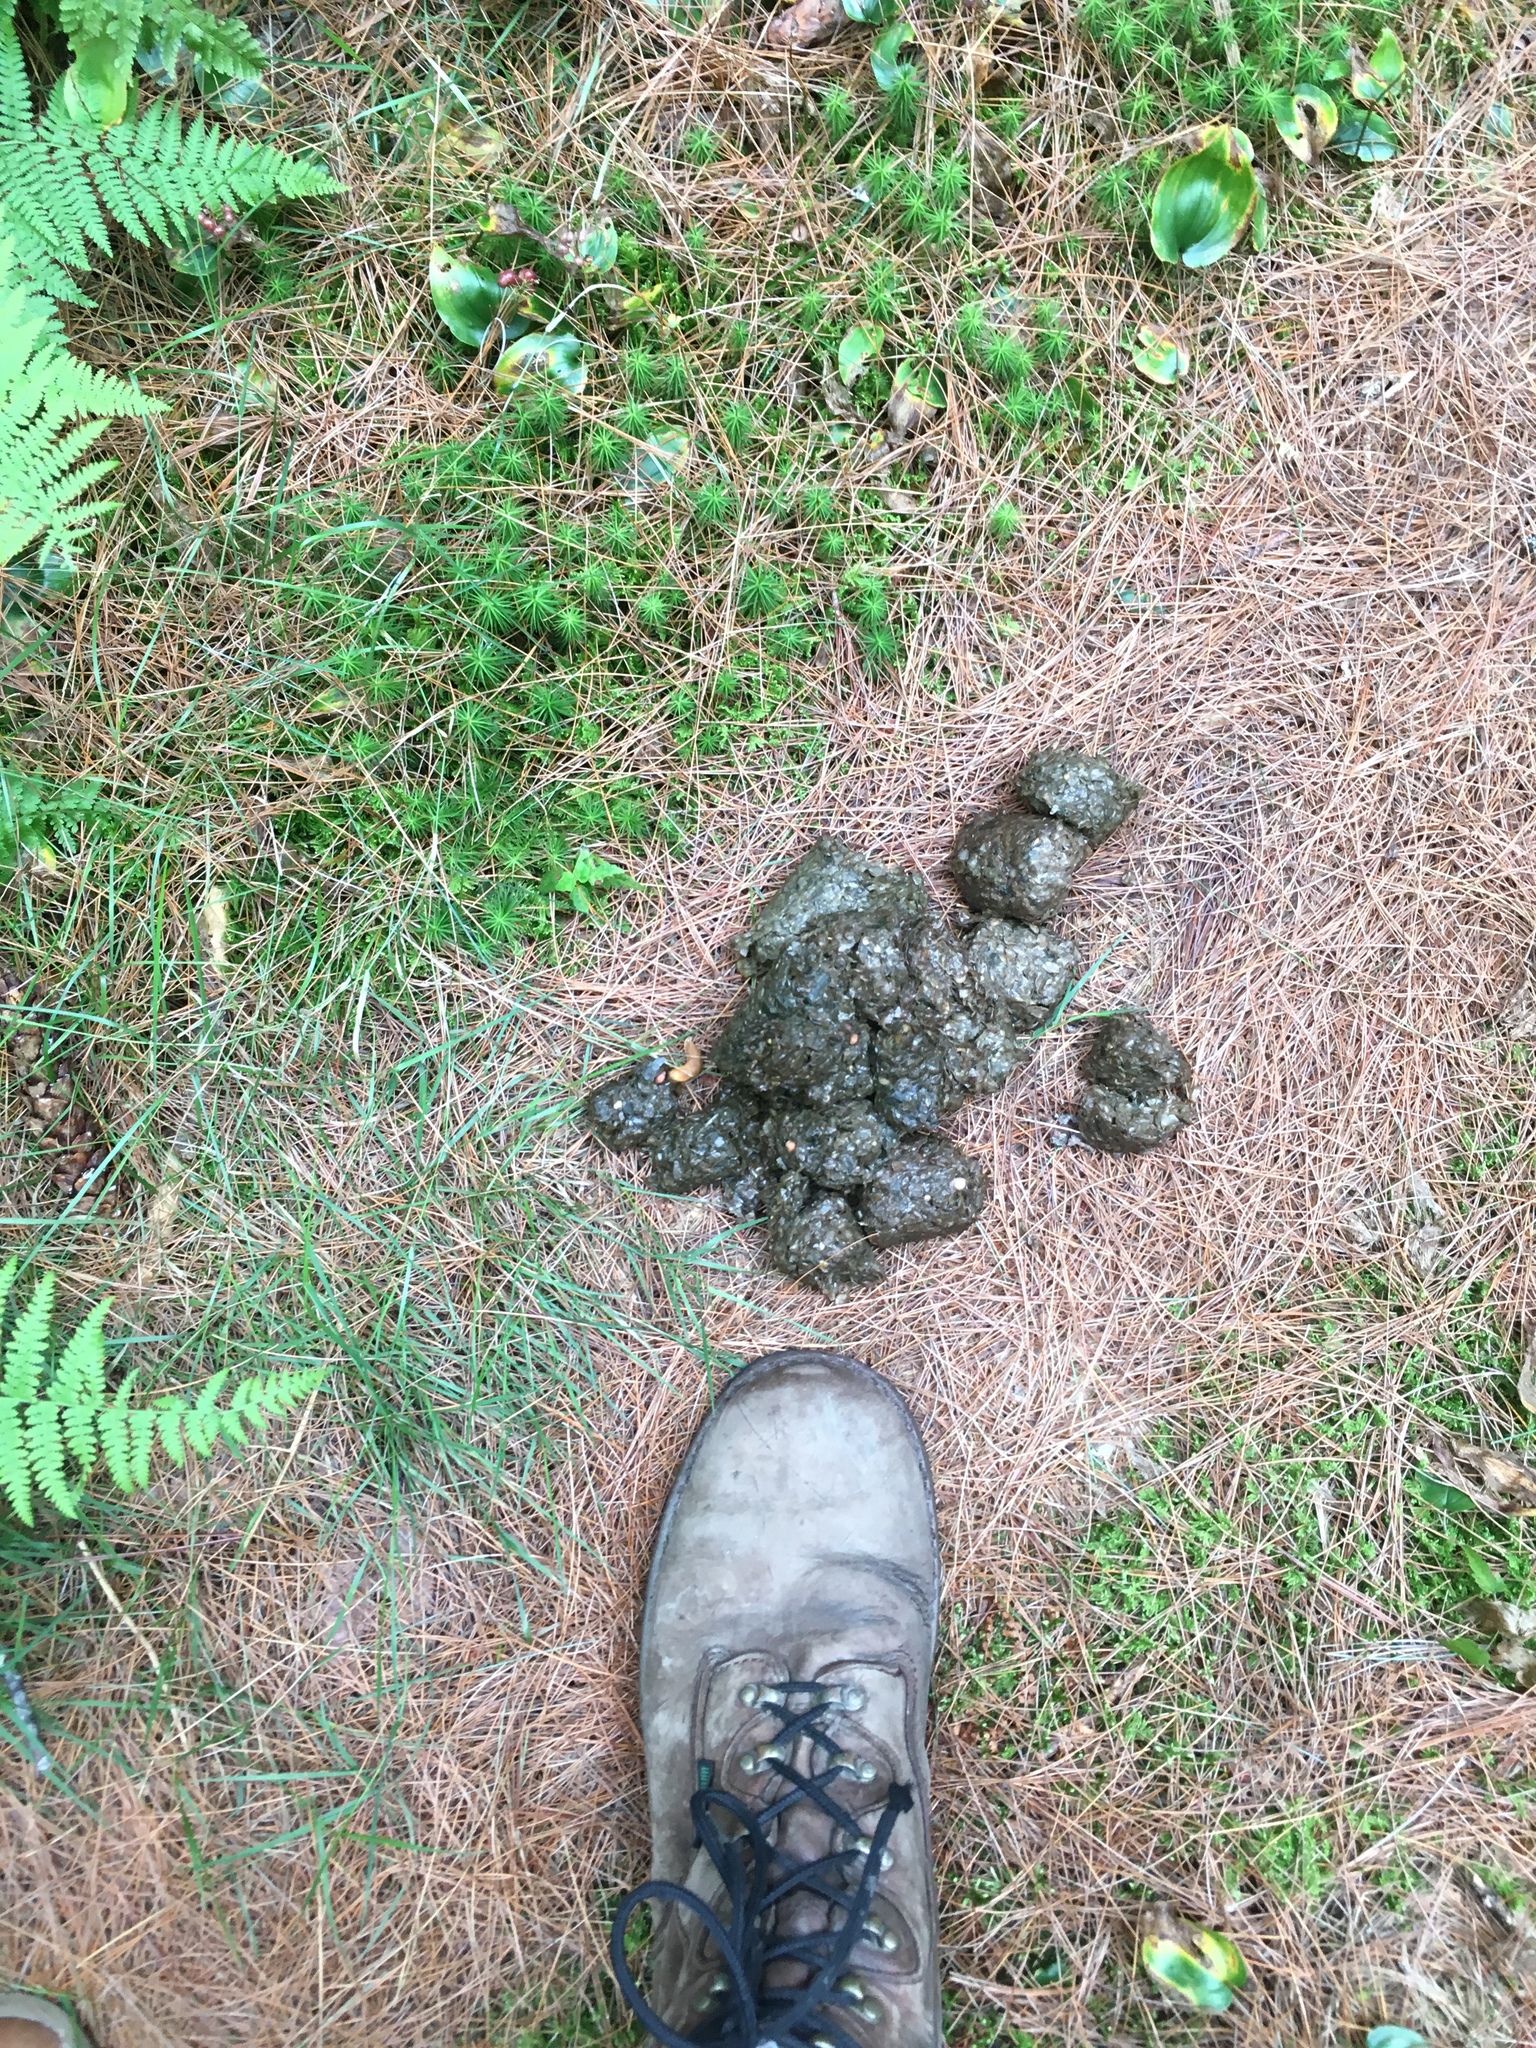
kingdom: Animalia
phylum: Chordata
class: Mammalia
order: Carnivora
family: Ursidae
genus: Ursus
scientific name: Ursus americanus
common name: American black bear
